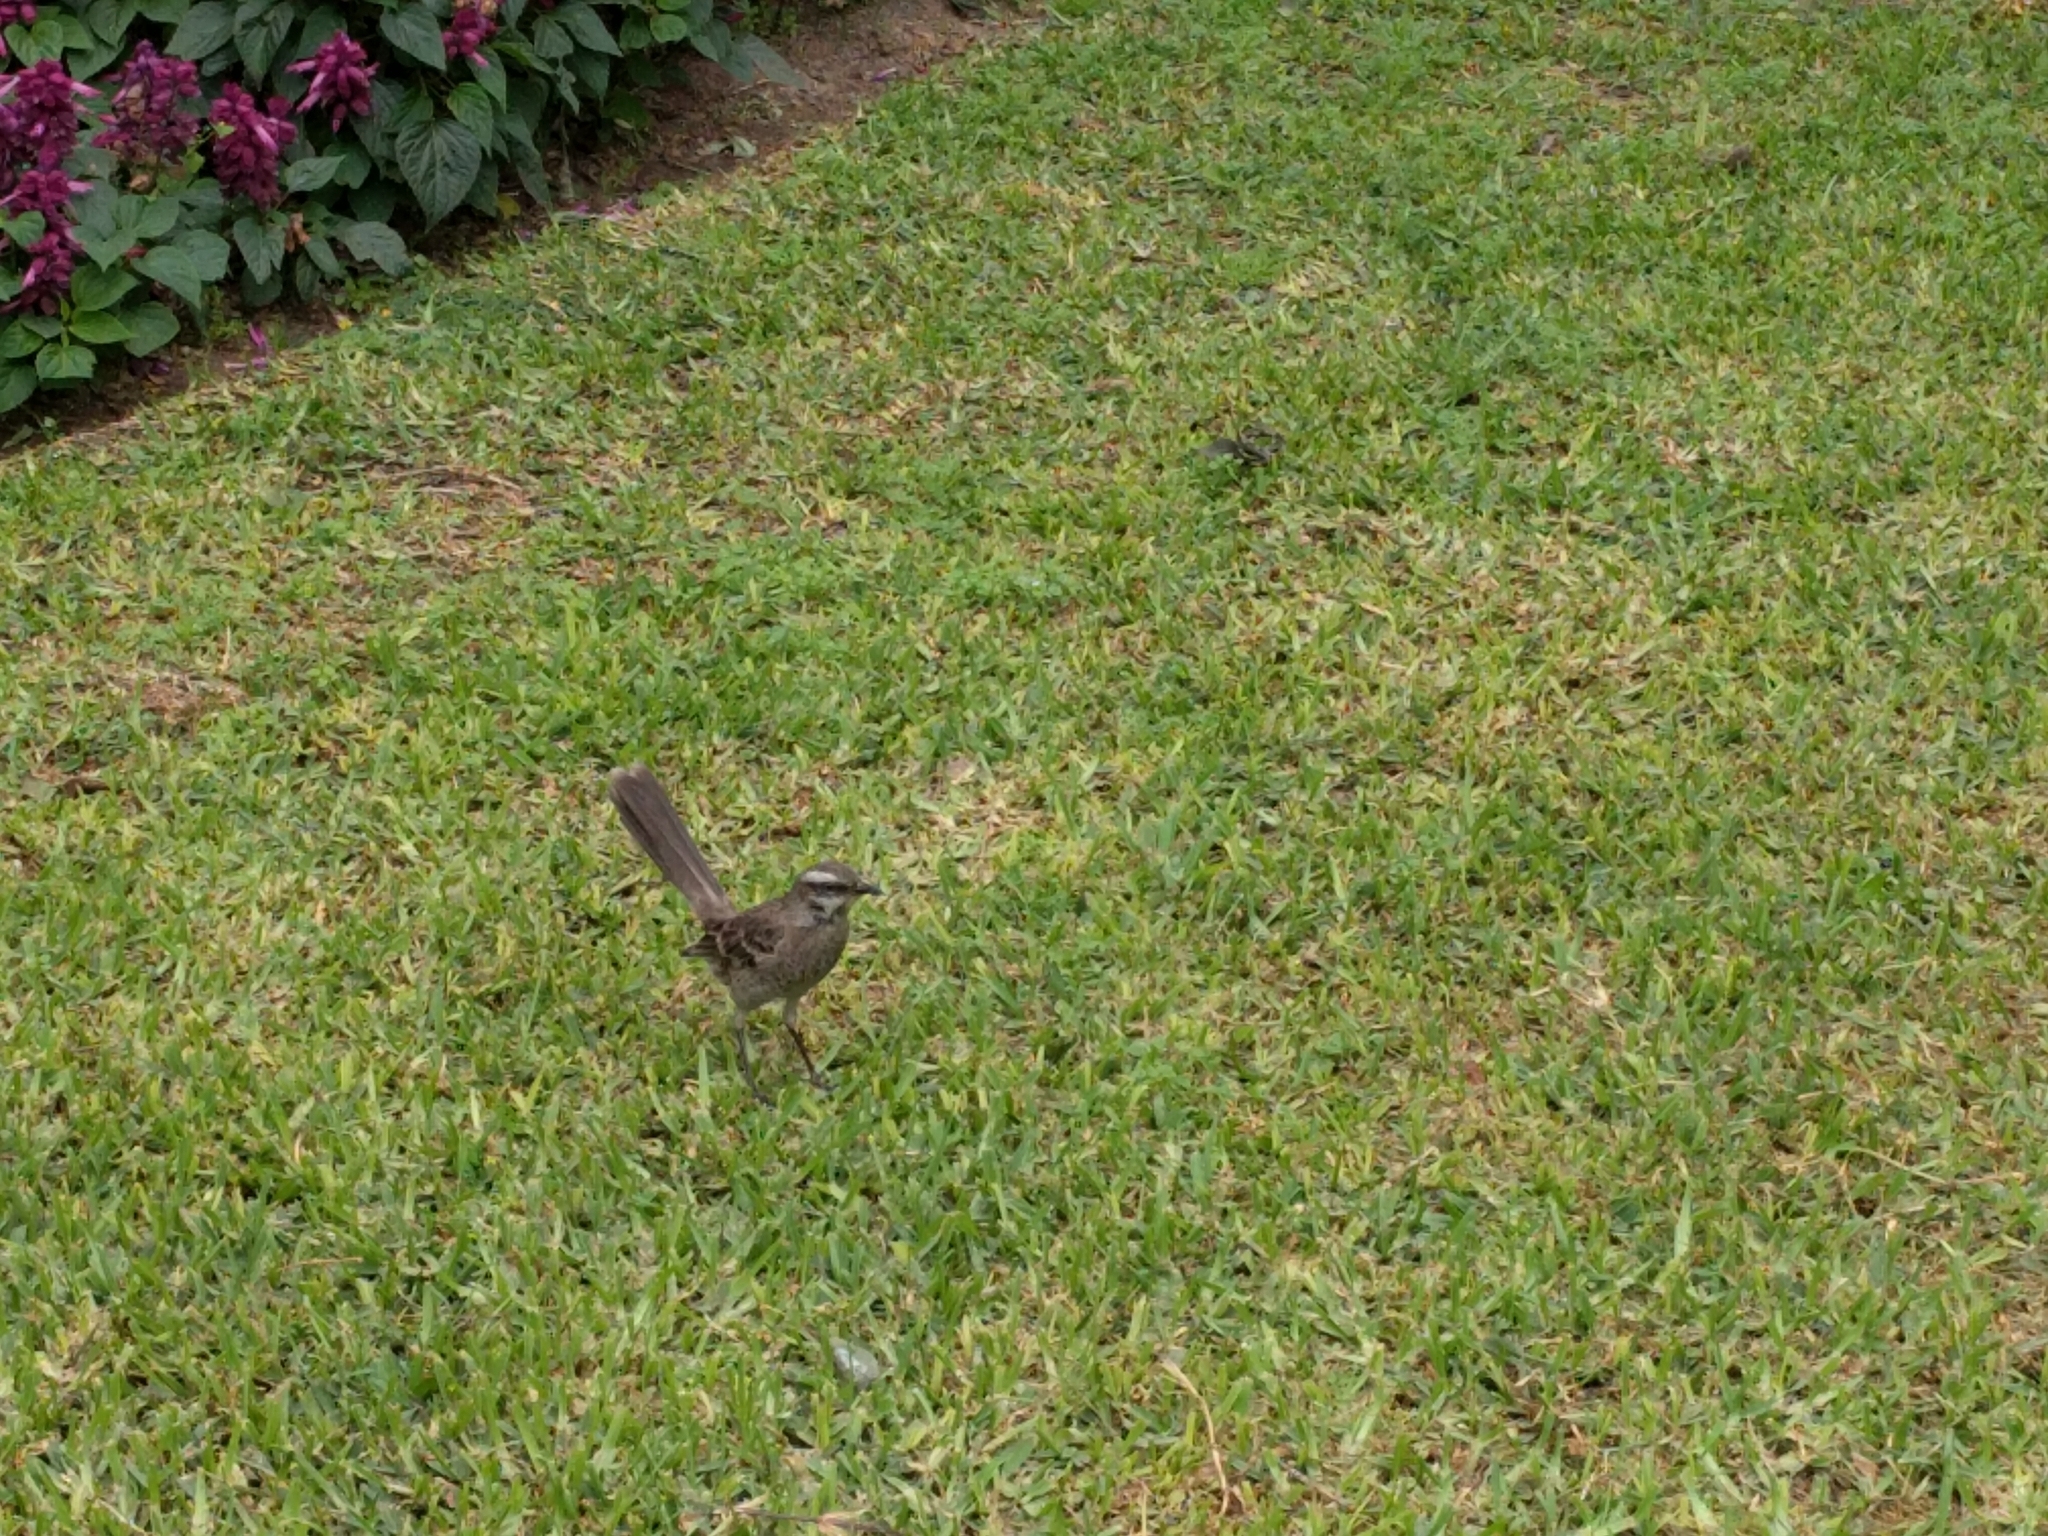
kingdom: Animalia
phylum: Chordata
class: Aves
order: Passeriformes
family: Mimidae
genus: Mimus
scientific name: Mimus longicaudatus
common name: Long-tailed mockingbird
